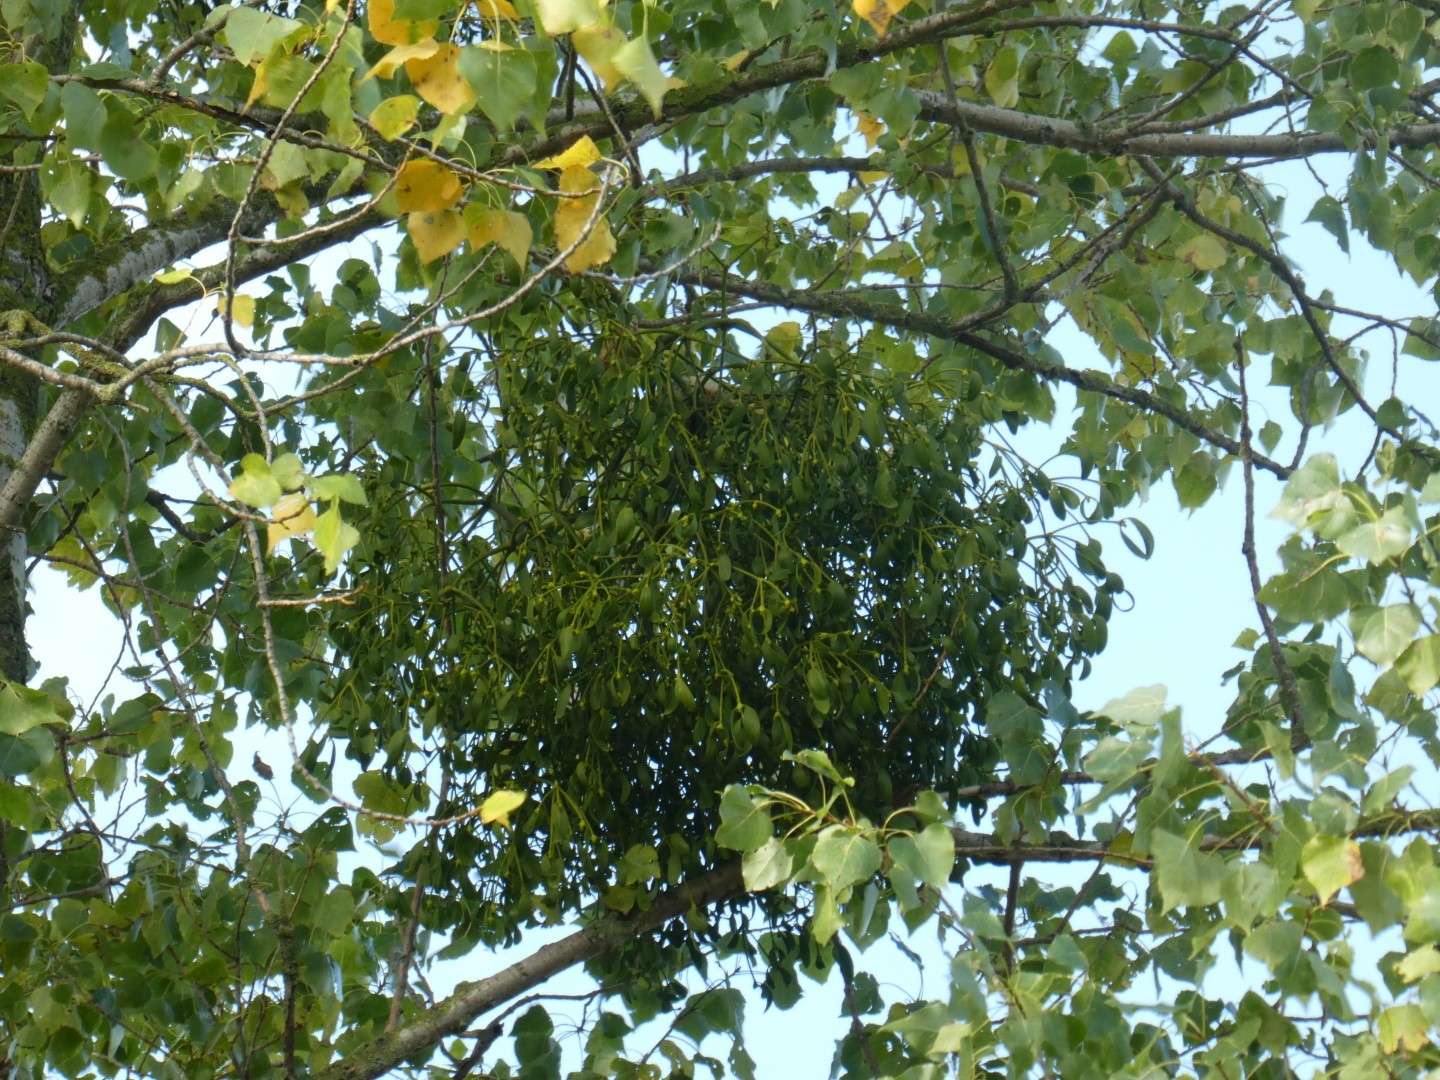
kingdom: Plantae
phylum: Tracheophyta
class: Magnoliopsida
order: Santalales
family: Viscaceae
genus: Viscum
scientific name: Viscum album
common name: Mistletoe
